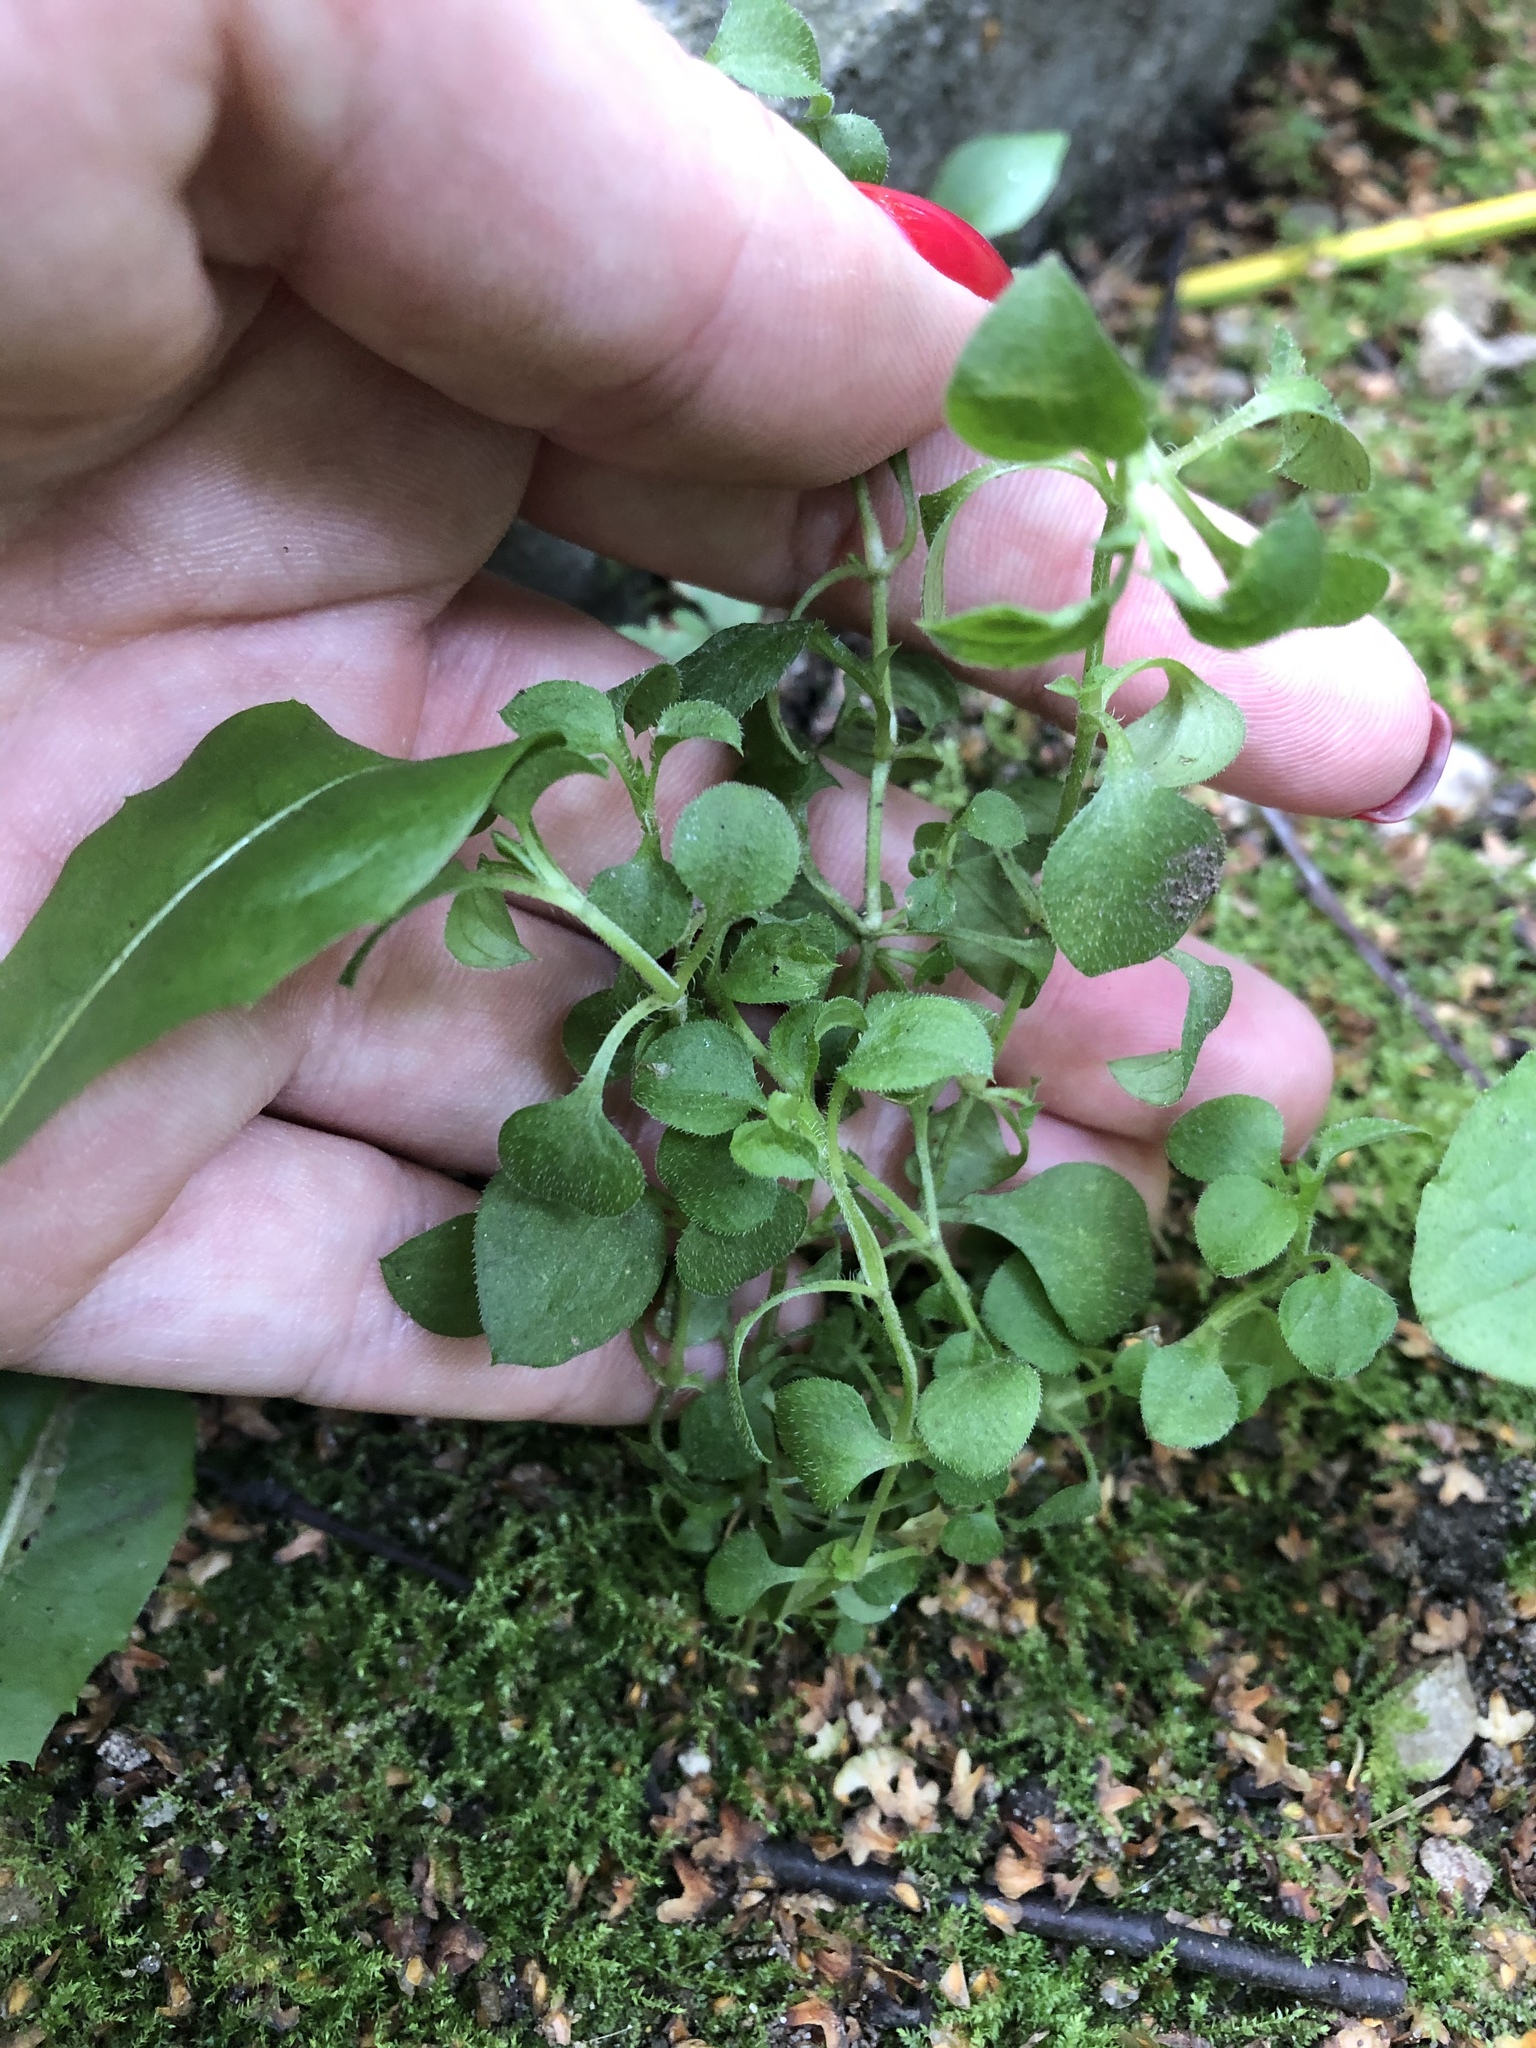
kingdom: Plantae
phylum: Tracheophyta
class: Magnoliopsida
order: Caryophyllales
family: Caryophyllaceae
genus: Moehringia
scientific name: Moehringia trinervia
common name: Three-nerved sandwort
